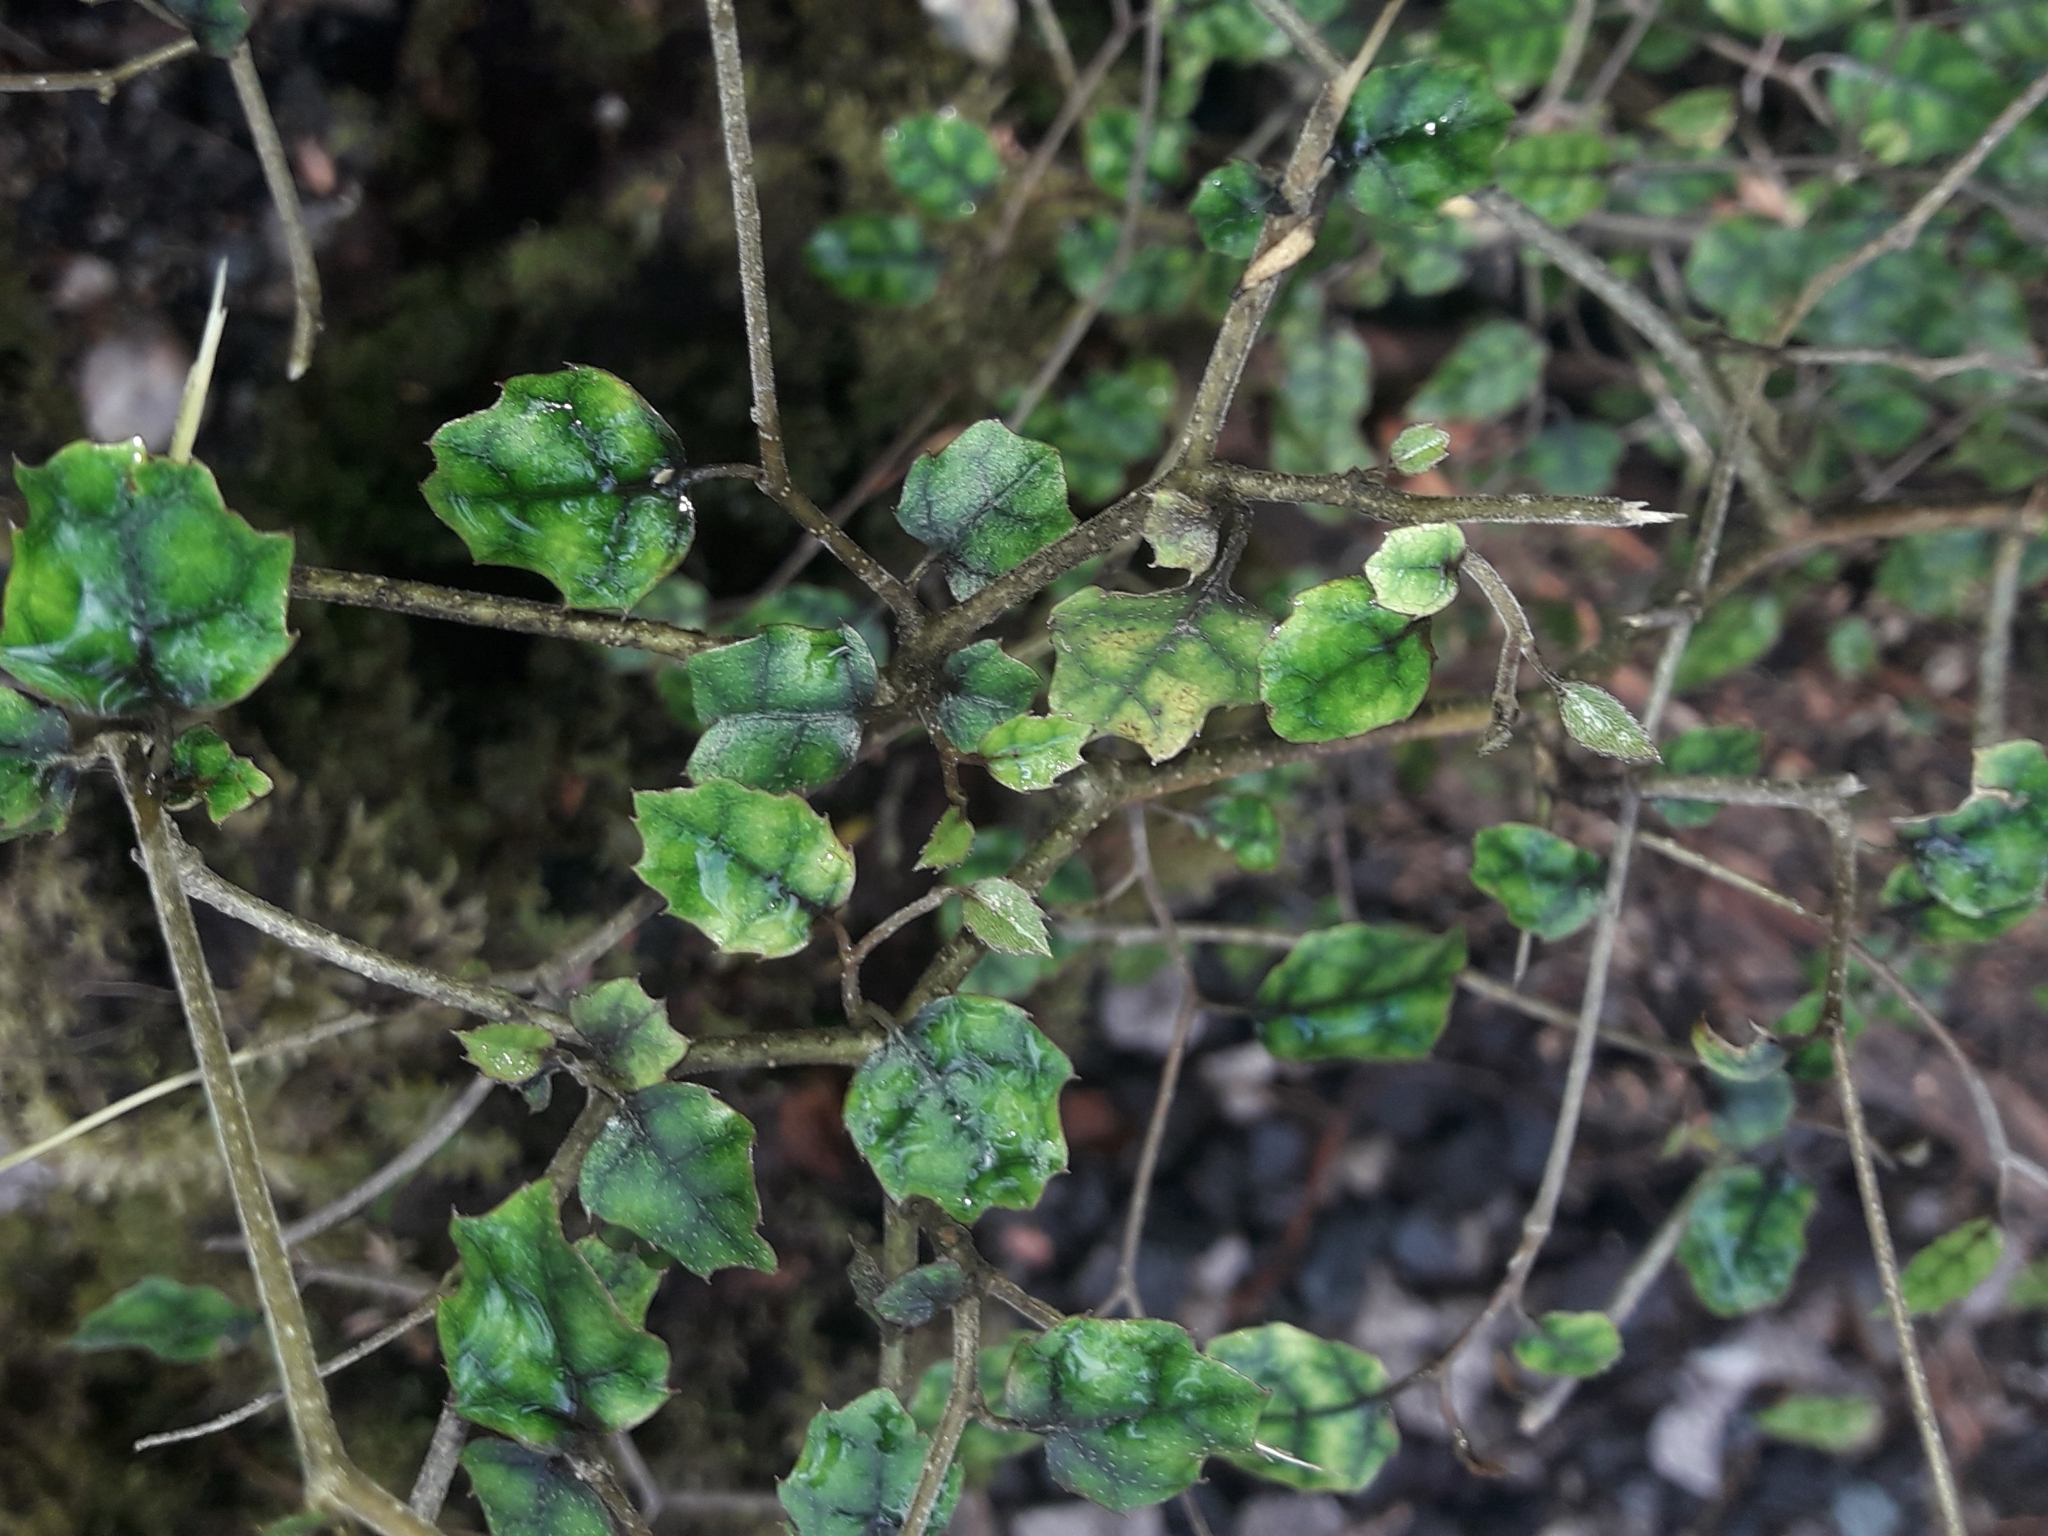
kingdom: Plantae
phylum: Tracheophyta
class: Magnoliopsida
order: Asterales
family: Rousseaceae
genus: Carpodetus
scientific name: Carpodetus serratus
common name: White mapau
